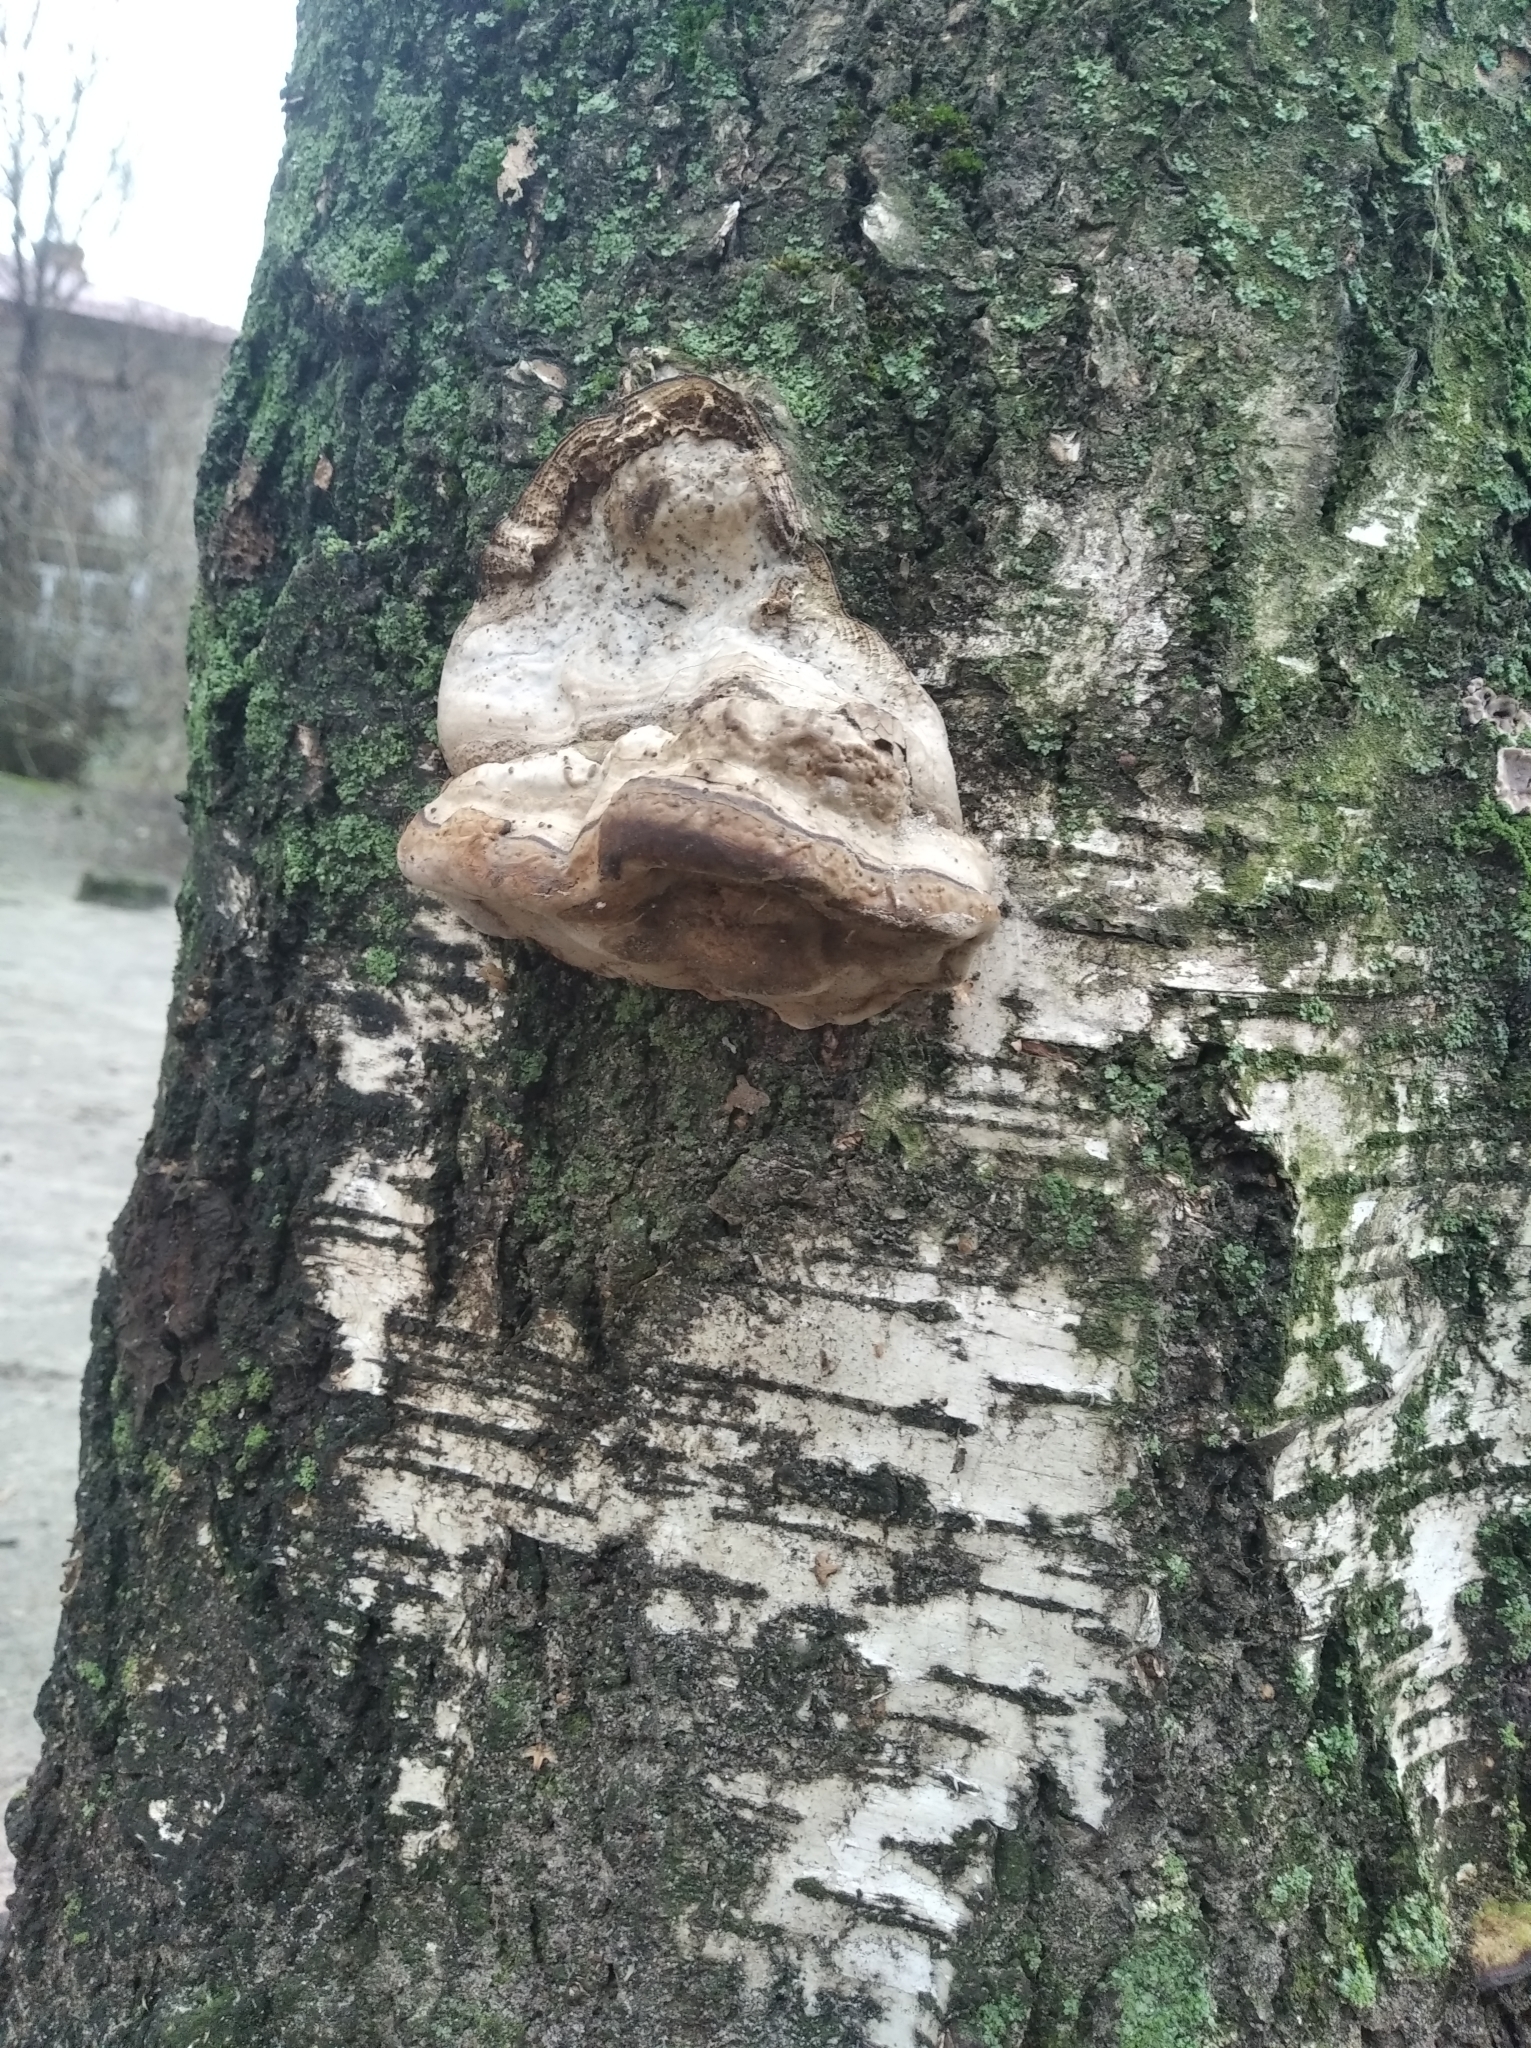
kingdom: Fungi
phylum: Basidiomycota
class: Agaricomycetes
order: Polyporales
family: Polyporaceae
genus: Fomes
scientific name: Fomes fomentarius
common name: Hoof fungus
